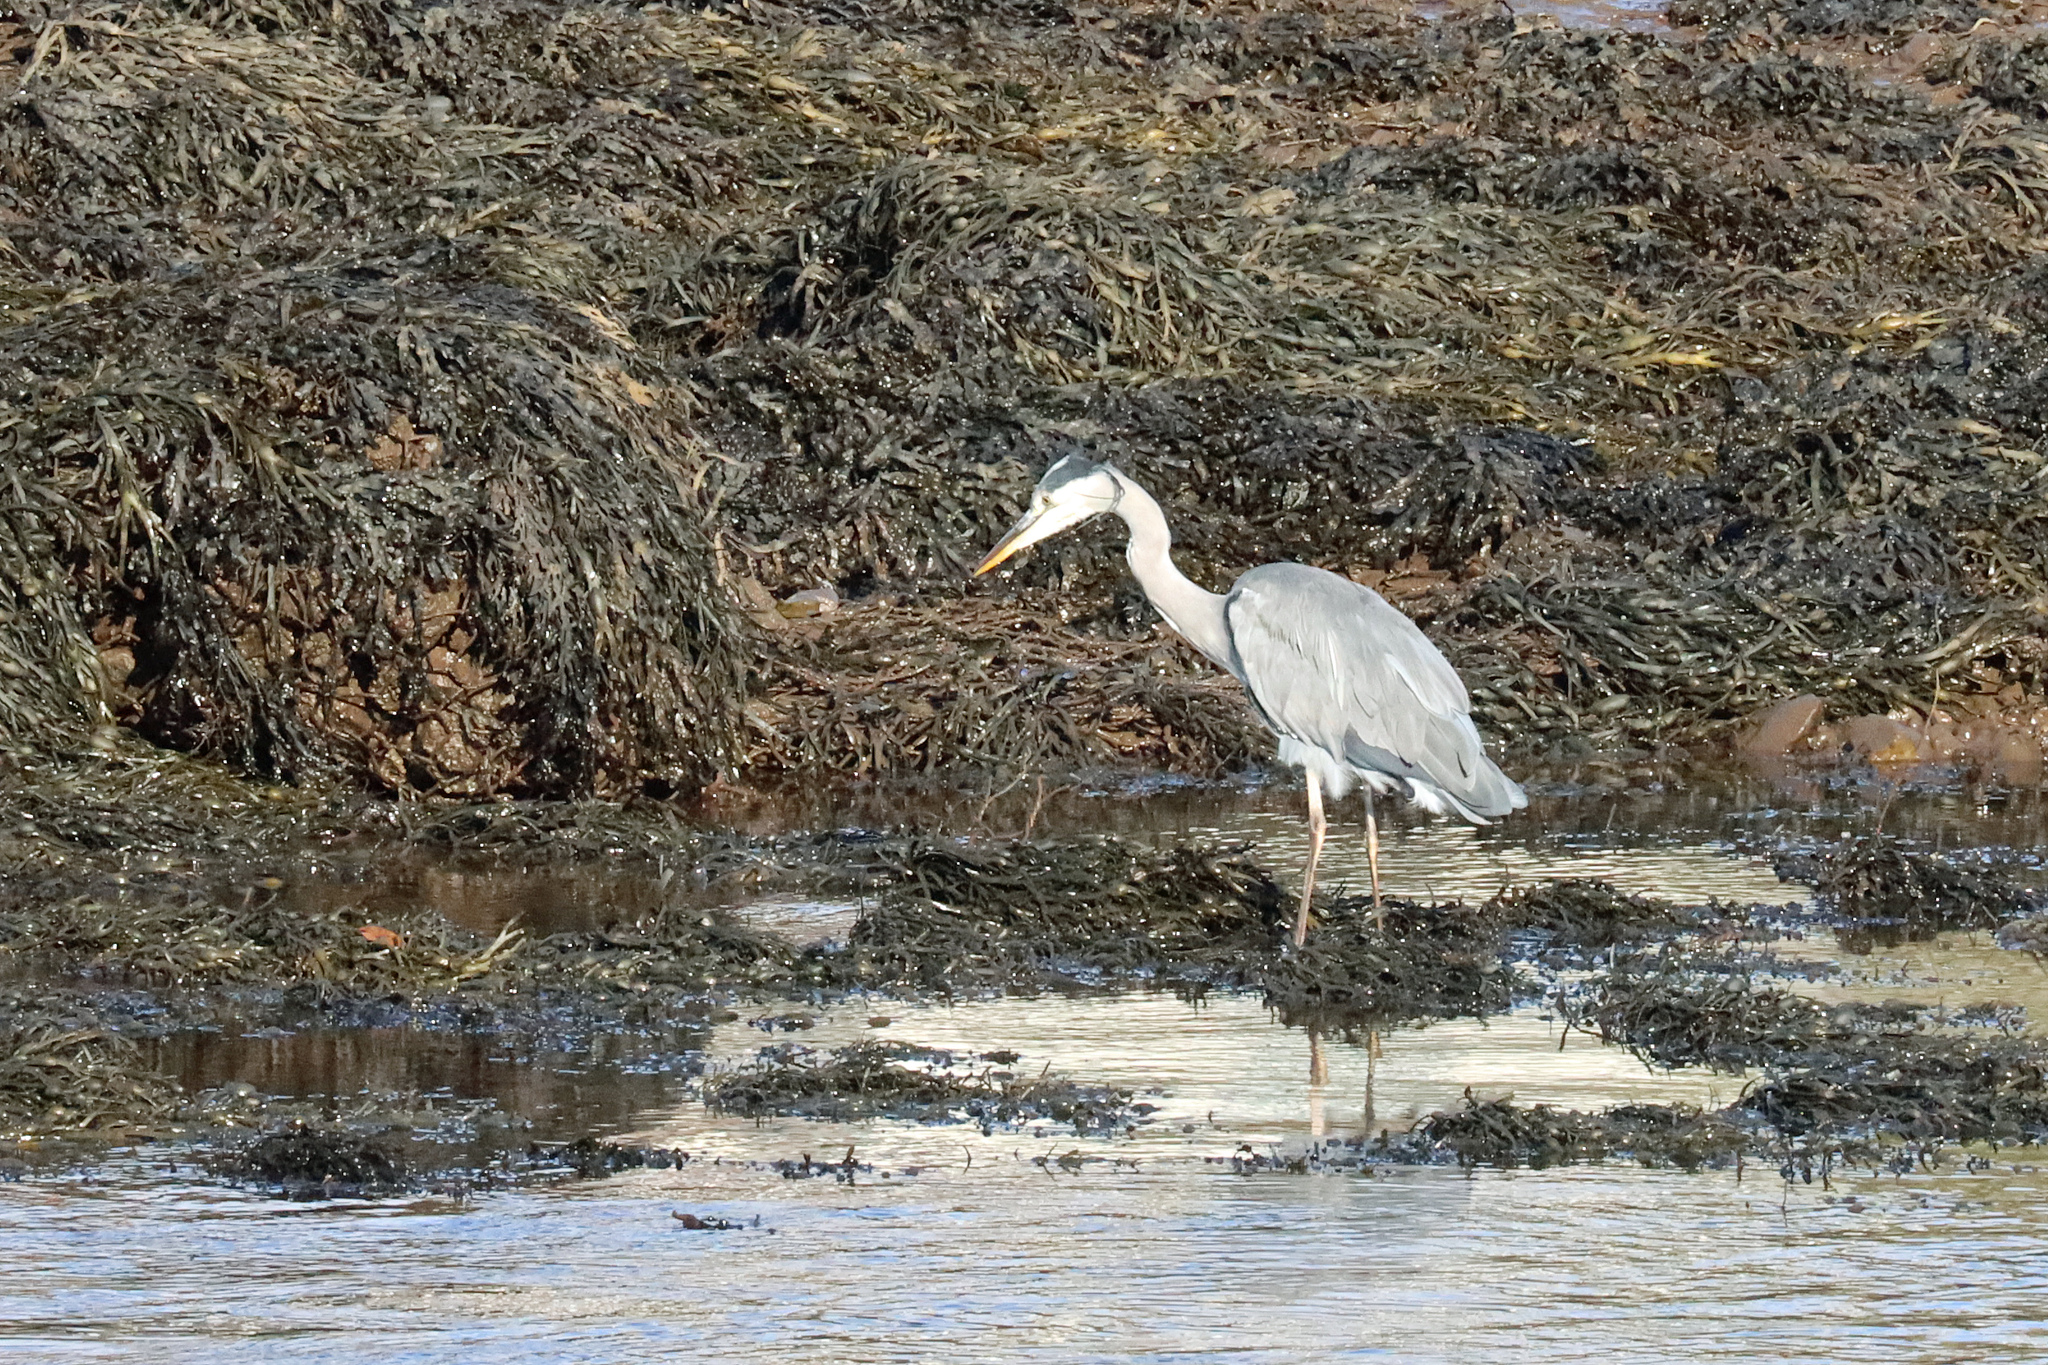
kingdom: Animalia
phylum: Chordata
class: Aves
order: Pelecaniformes
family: Ardeidae
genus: Ardea
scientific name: Ardea cinerea
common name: Grey heron
